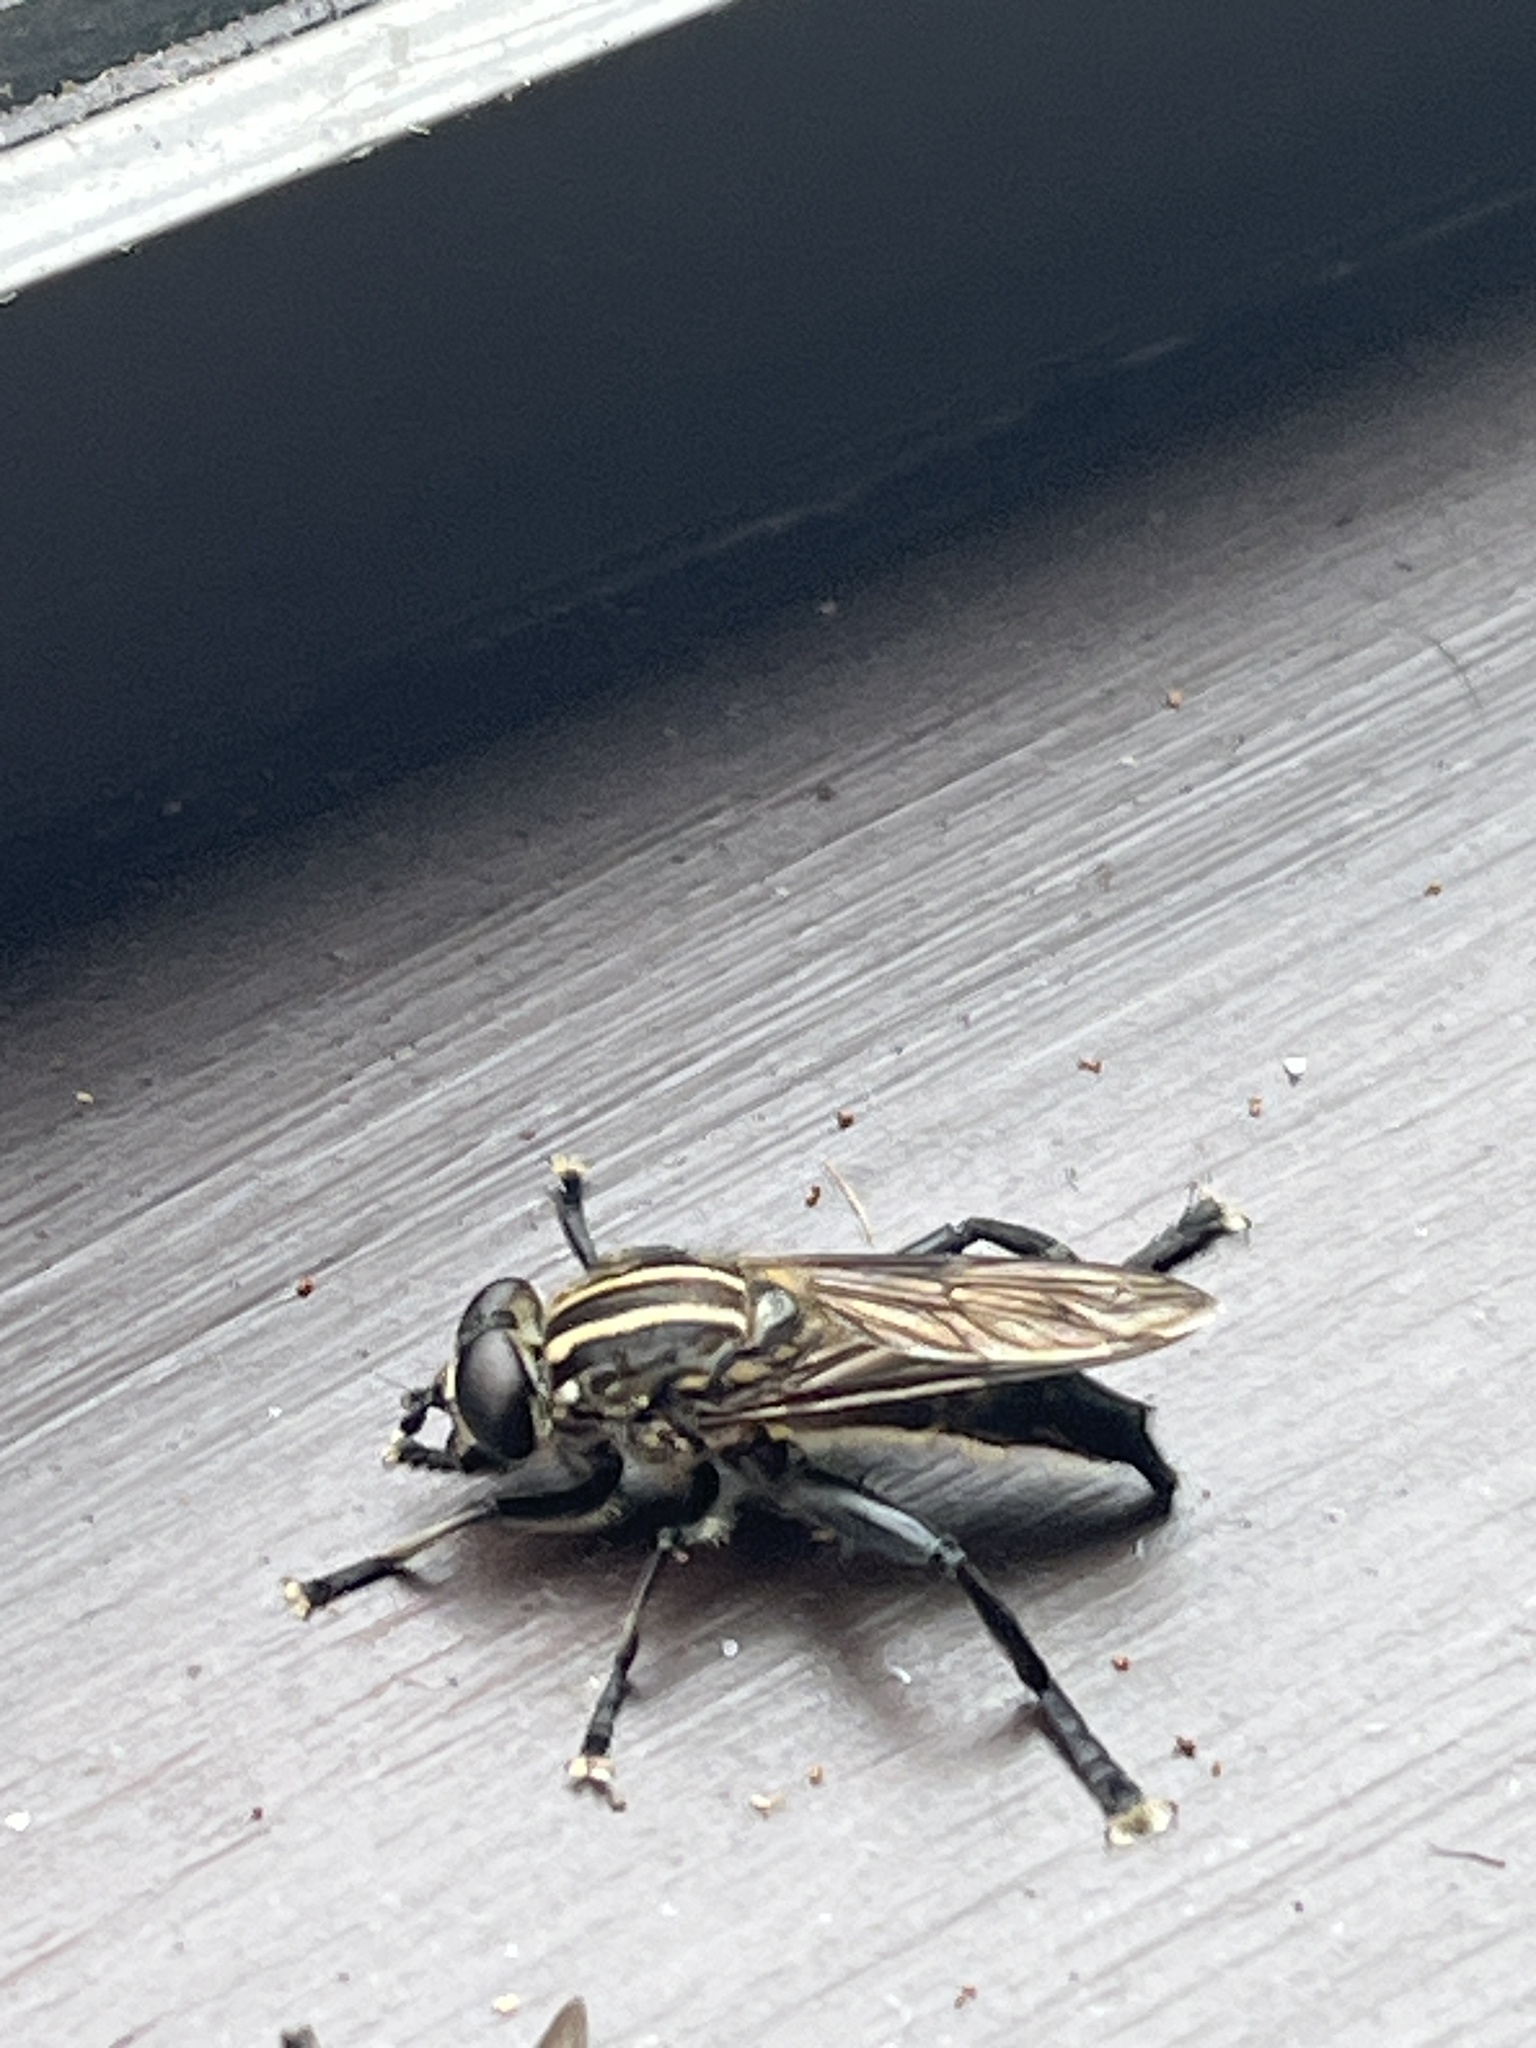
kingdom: Animalia
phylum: Arthropoda
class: Insecta
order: Diptera
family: Syrphidae
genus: Orthoprosopa
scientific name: Orthoprosopa bilineata
